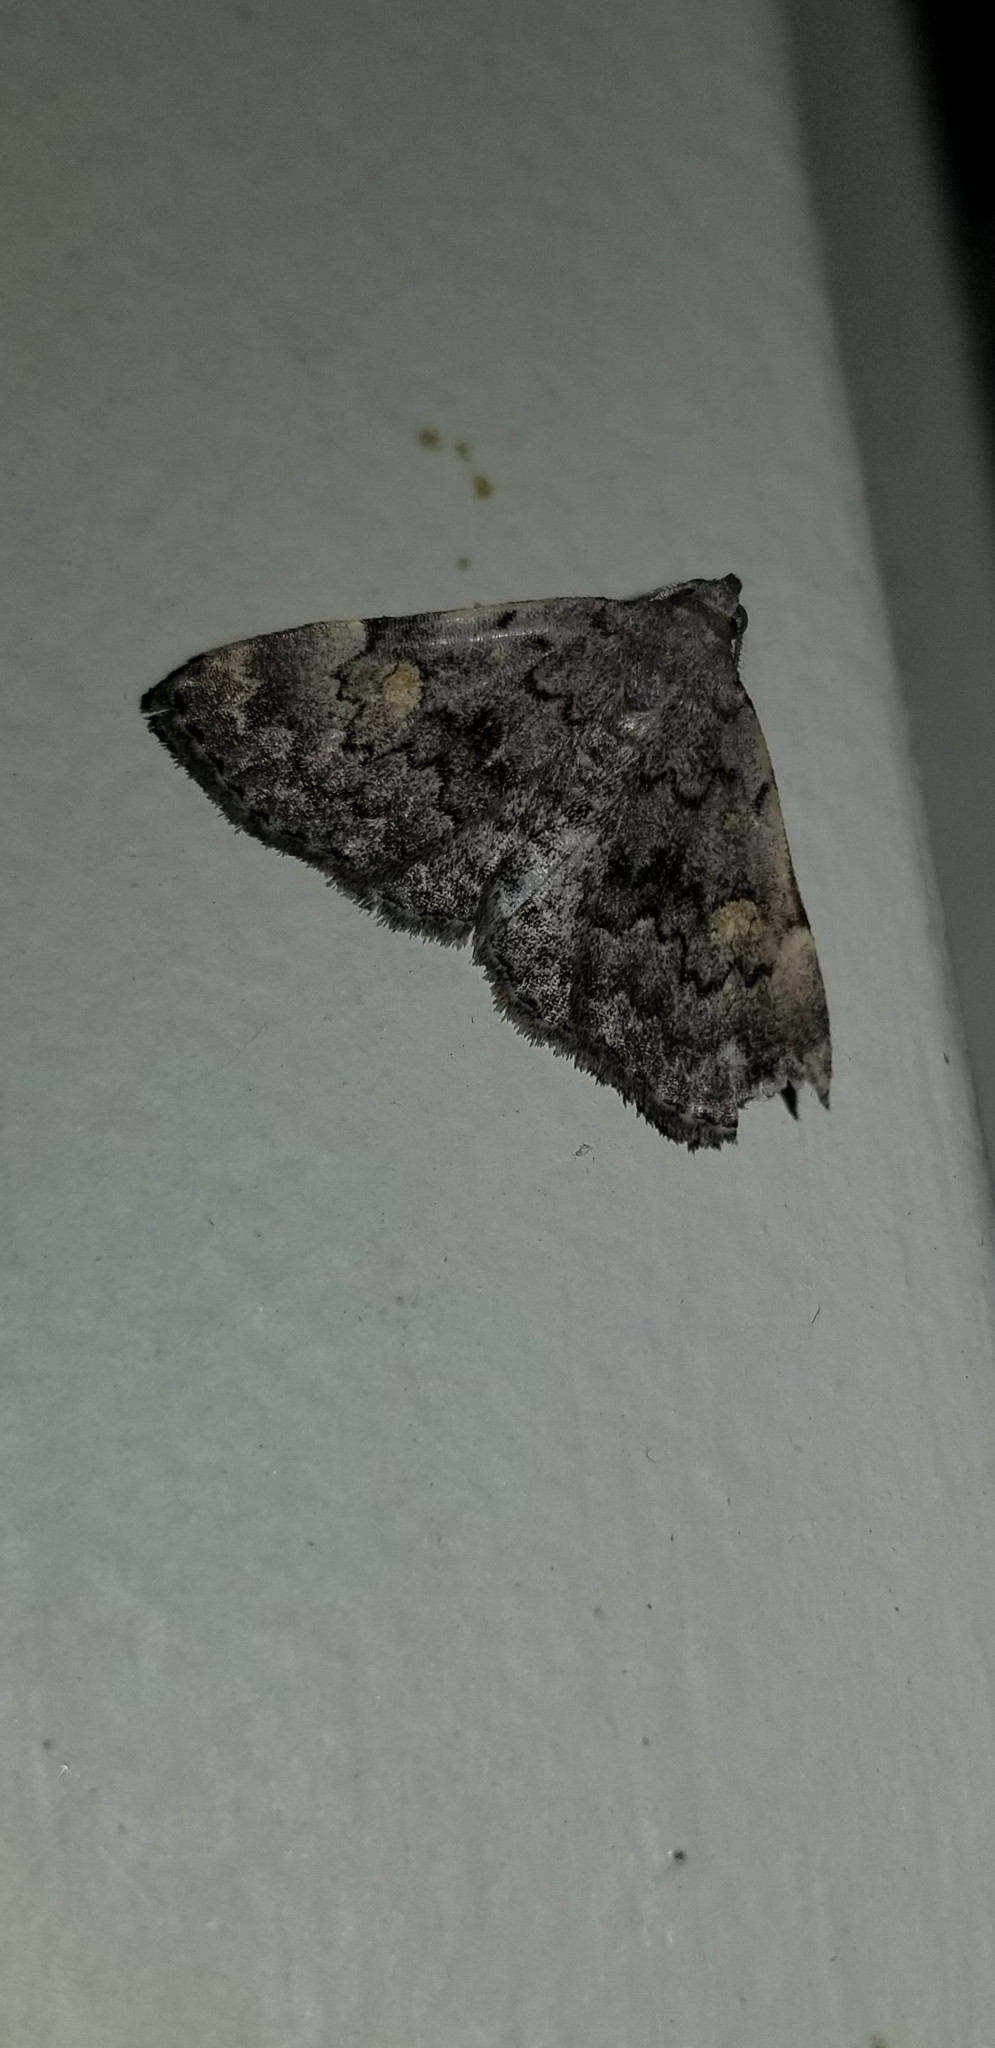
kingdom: Animalia
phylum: Arthropoda
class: Insecta
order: Lepidoptera
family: Erebidae
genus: Idia
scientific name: Idia aemula
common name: Common idia moth
